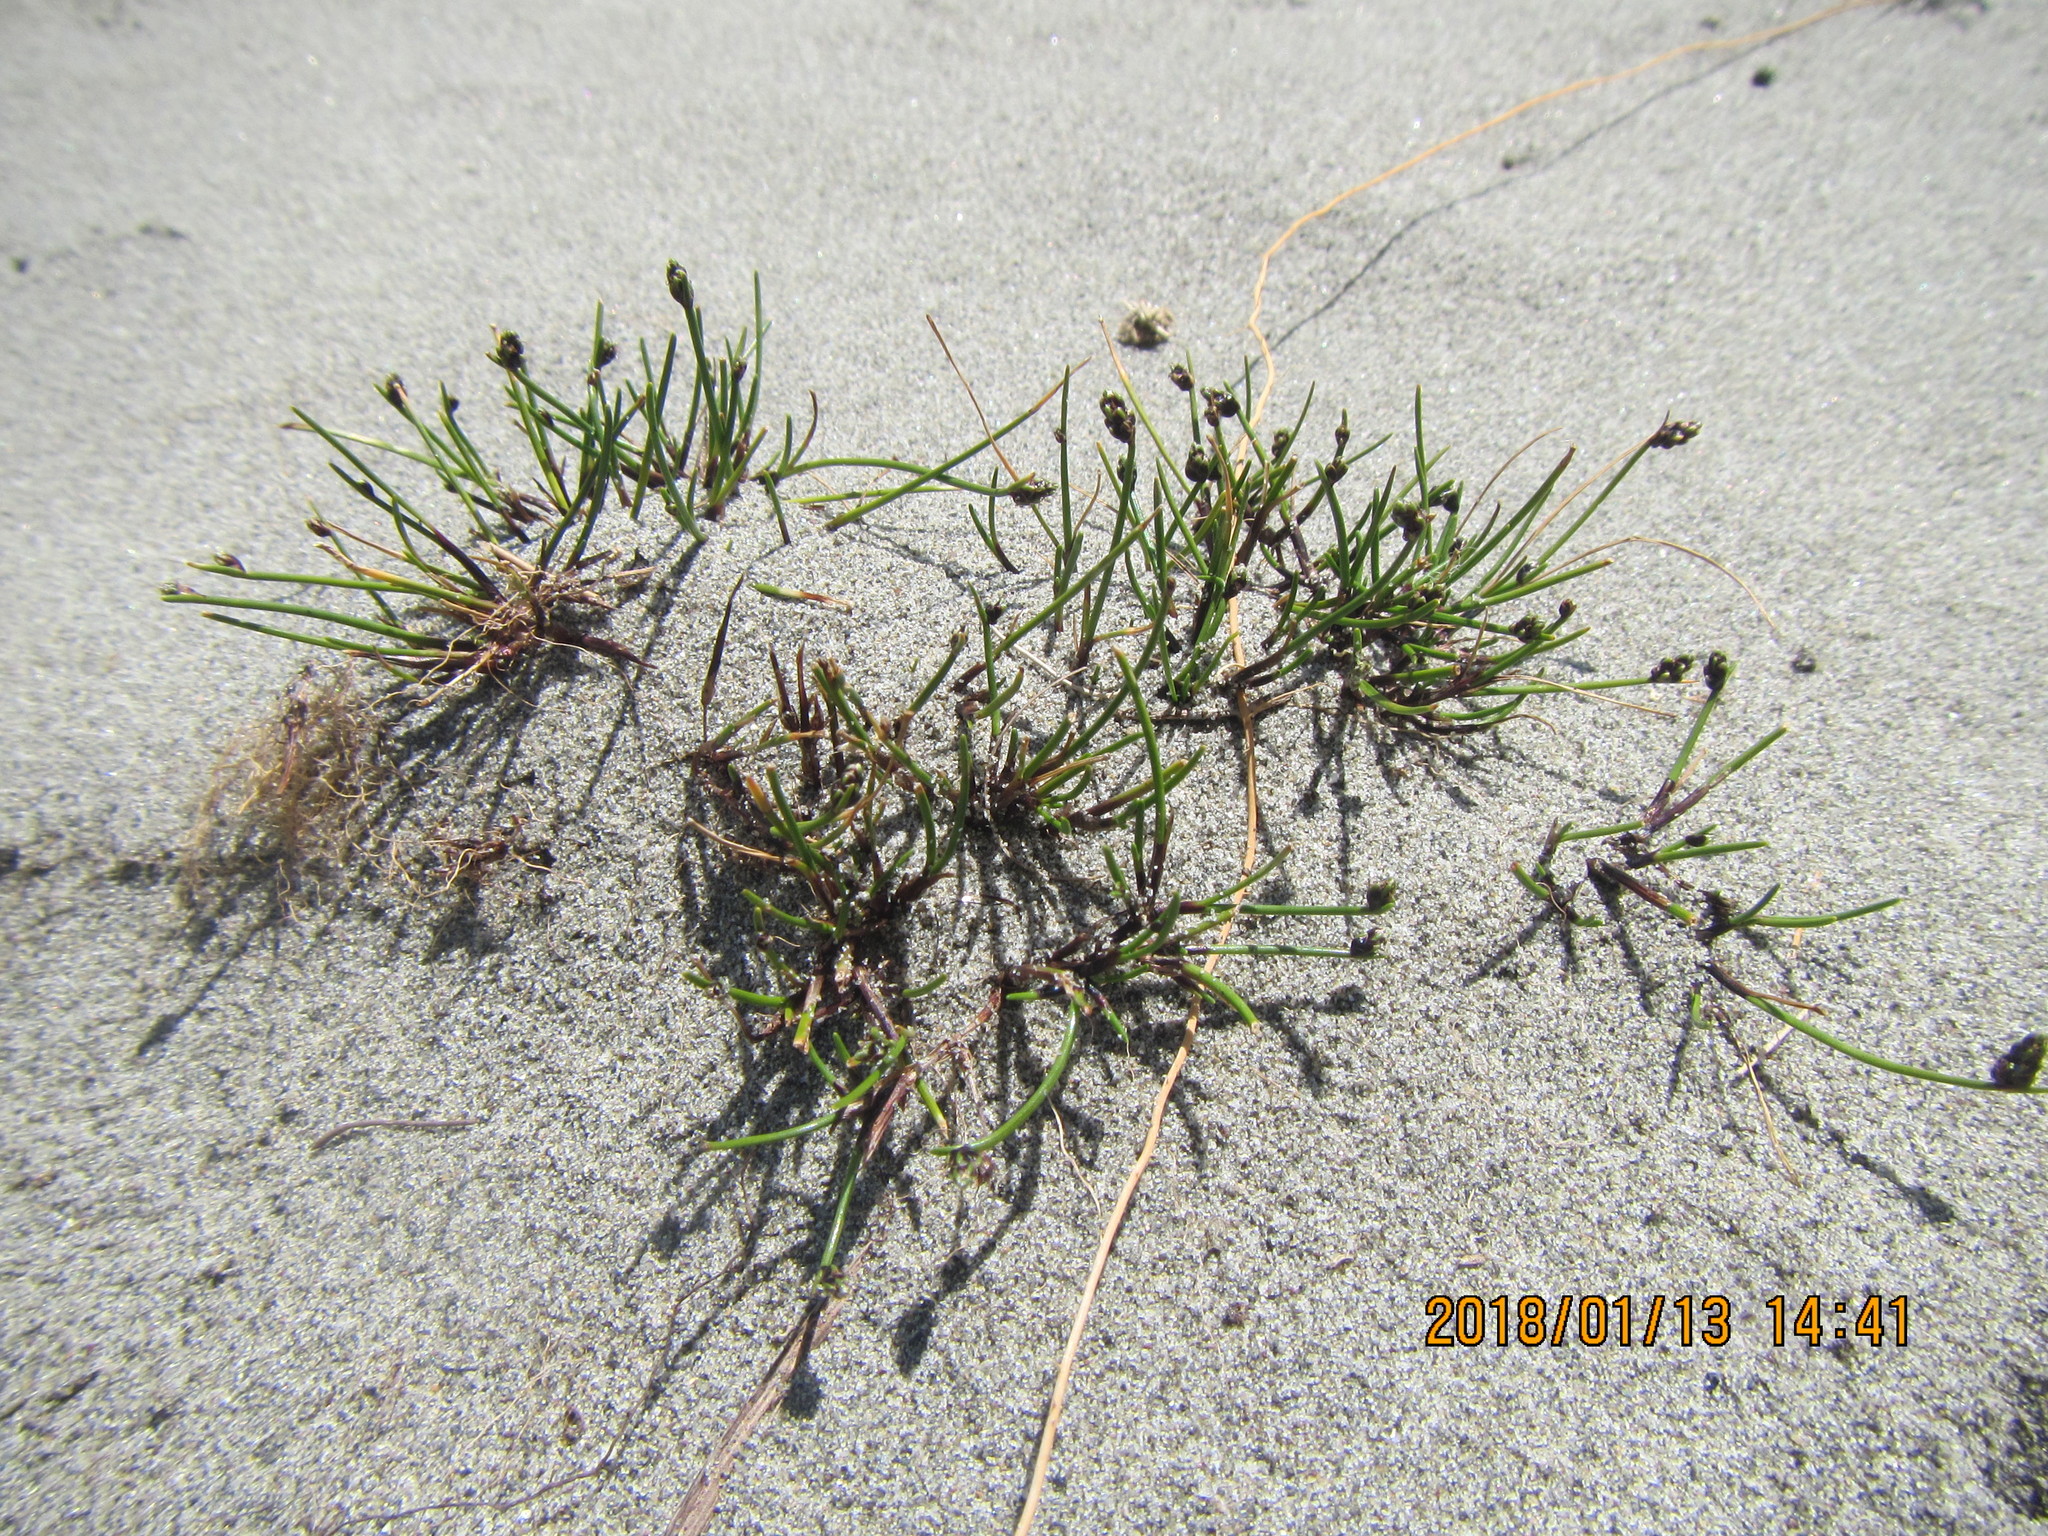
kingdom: Plantae
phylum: Tracheophyta
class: Liliopsida
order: Poales
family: Cyperaceae
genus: Isolepis
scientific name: Isolepis cernua
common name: Slender club-rush
